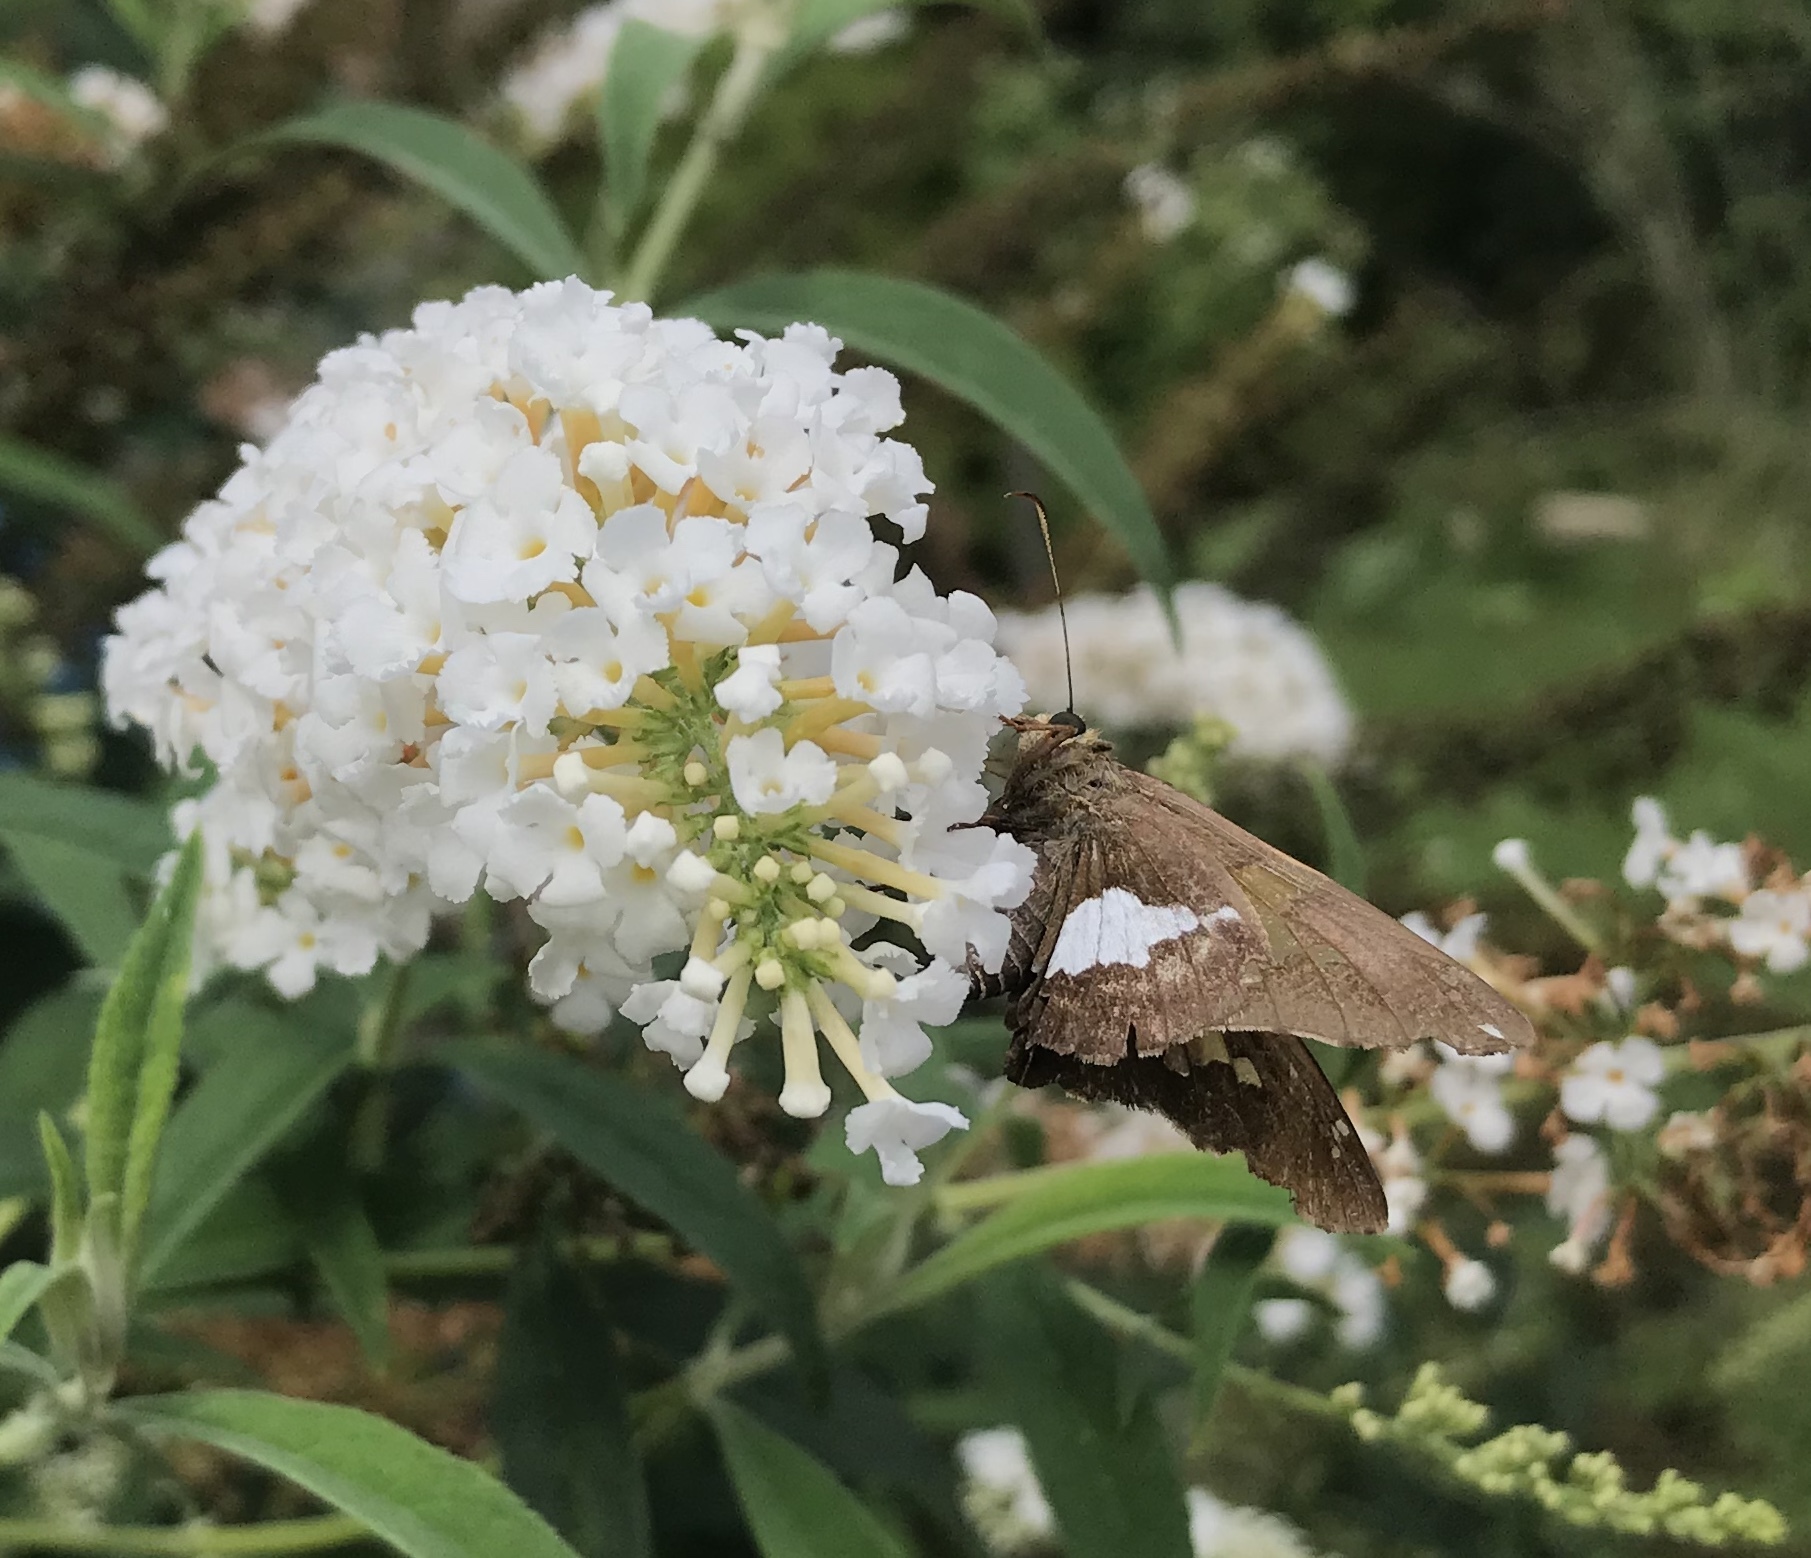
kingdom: Animalia
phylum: Arthropoda
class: Insecta
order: Lepidoptera
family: Hesperiidae
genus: Epargyreus
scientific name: Epargyreus clarus
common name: Silver-spotted skipper
